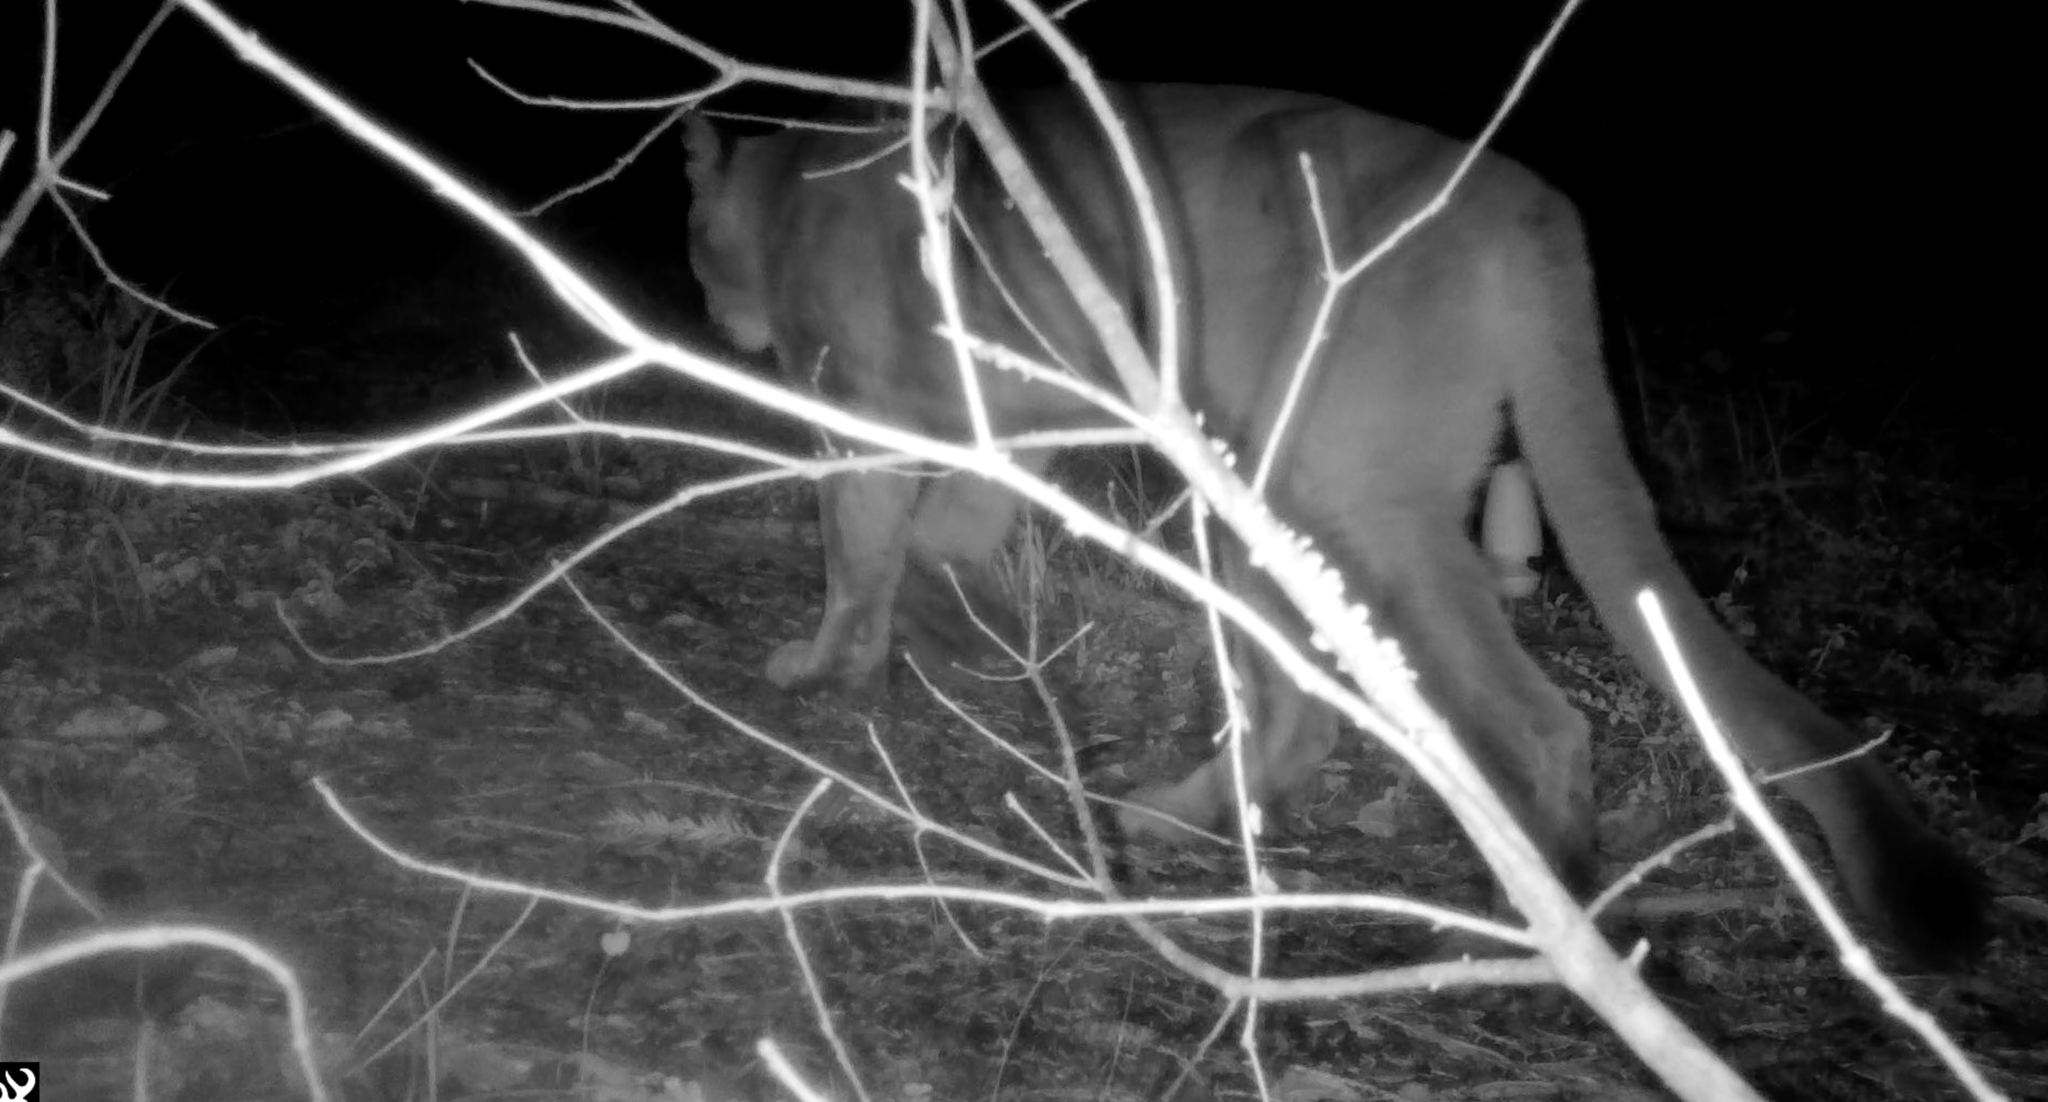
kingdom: Animalia
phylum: Chordata
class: Mammalia
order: Carnivora
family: Felidae
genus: Puma
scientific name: Puma concolor
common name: Puma
